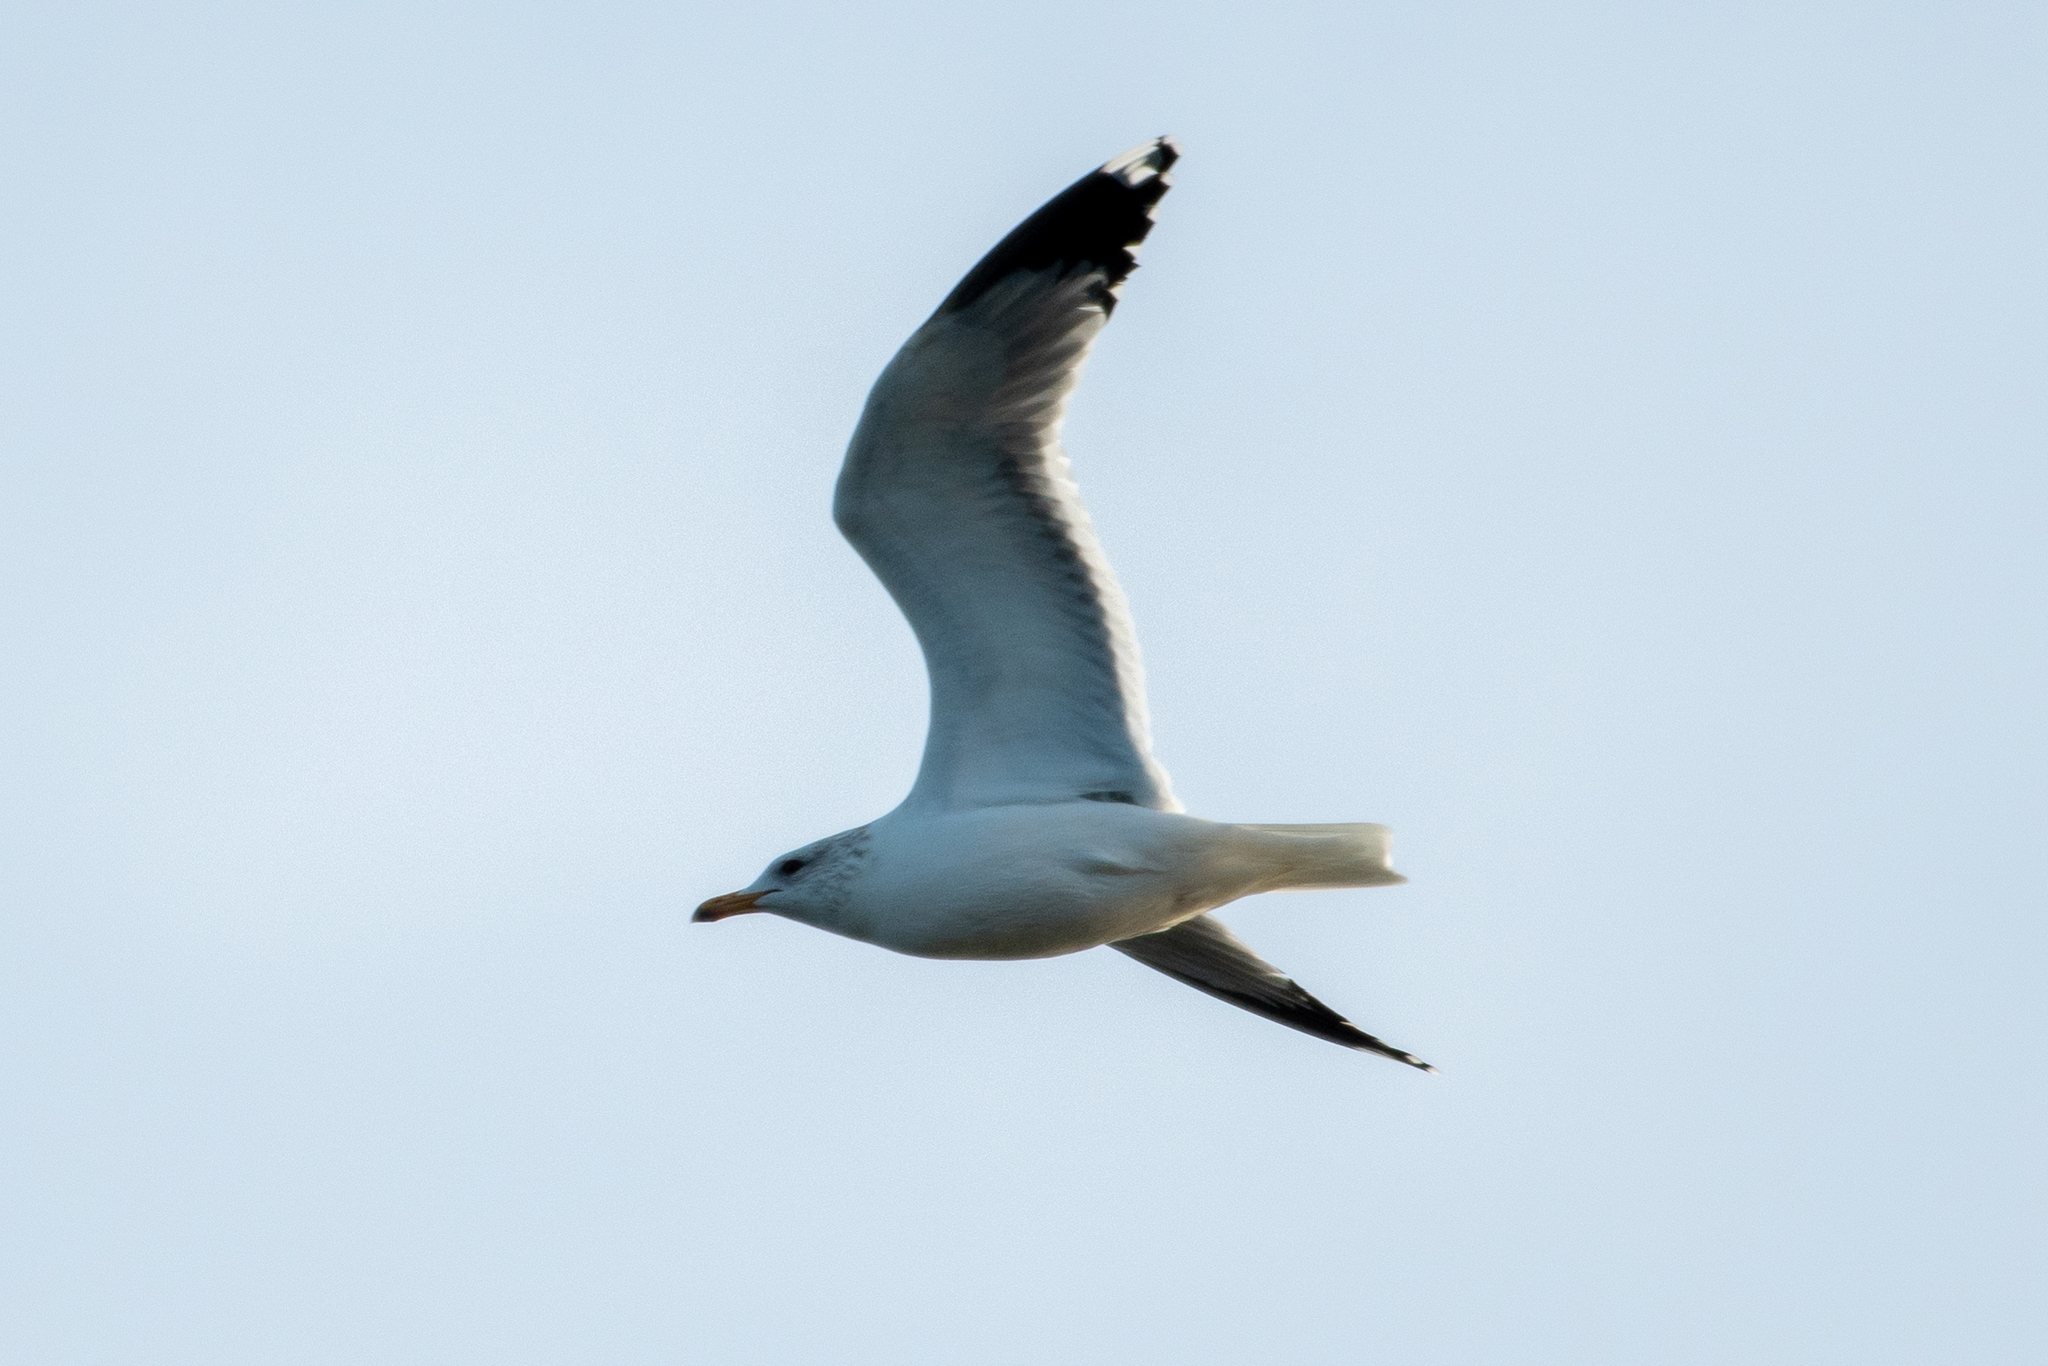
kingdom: Animalia
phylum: Chordata
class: Aves
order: Charadriiformes
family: Laridae
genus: Larus
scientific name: Larus californicus
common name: California gull
